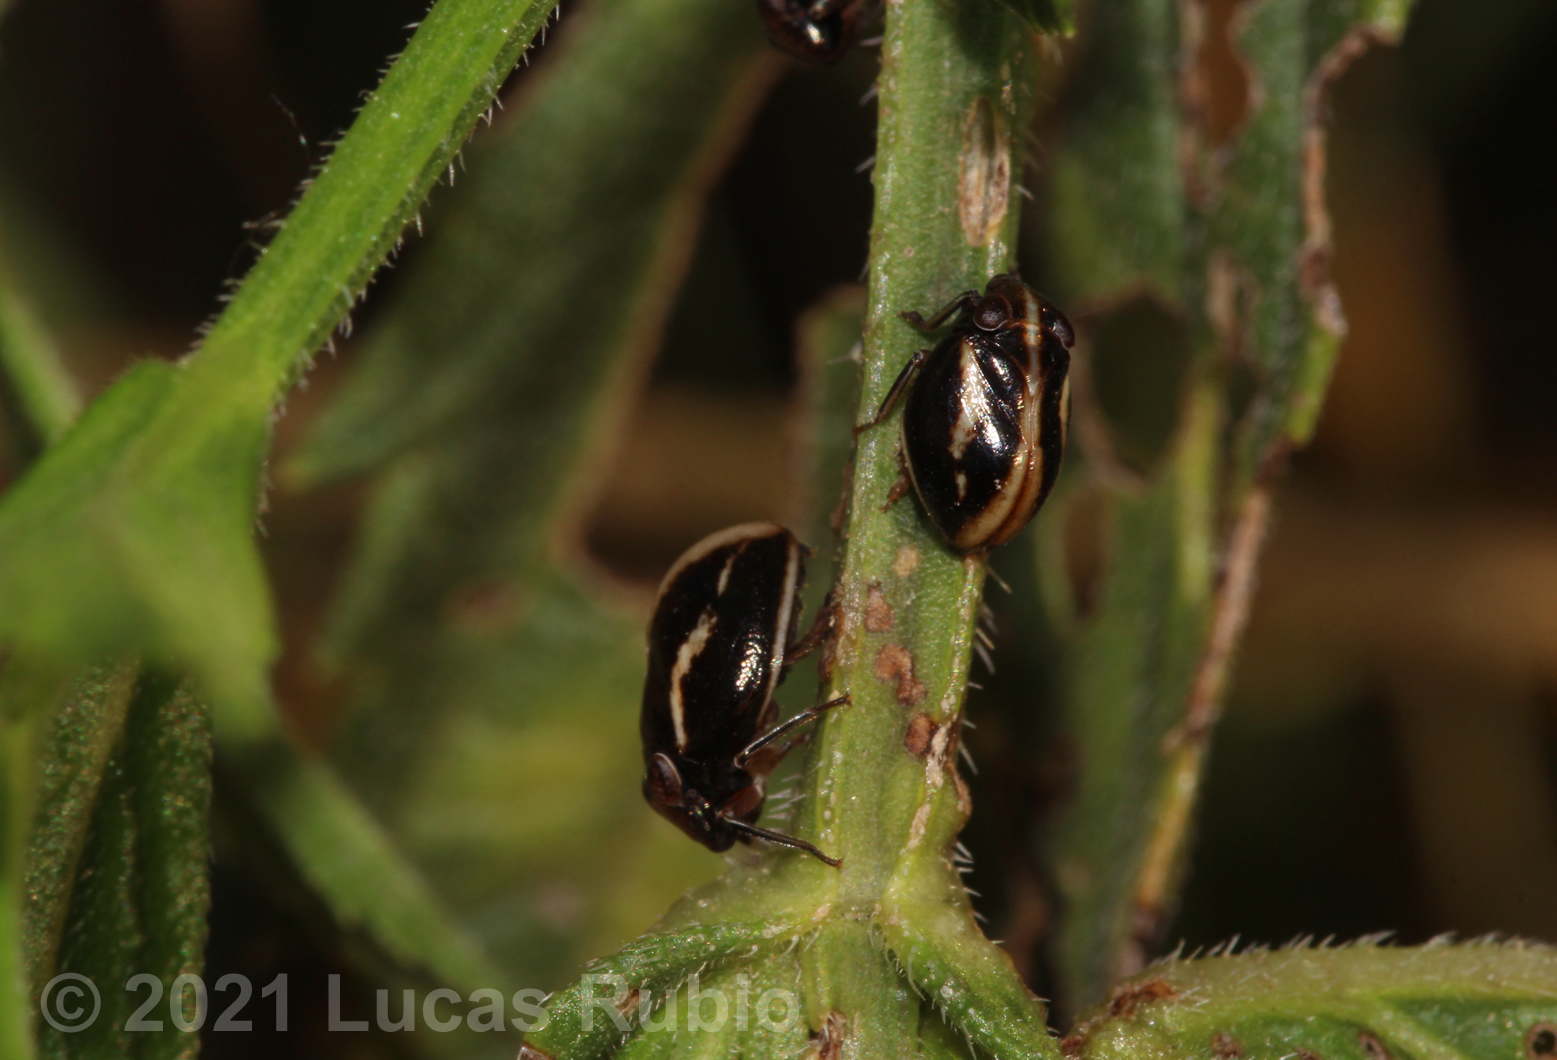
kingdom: Animalia
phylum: Arthropoda
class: Insecta
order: Hemiptera
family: Issidae
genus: Argepara
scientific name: Argepara lyra
